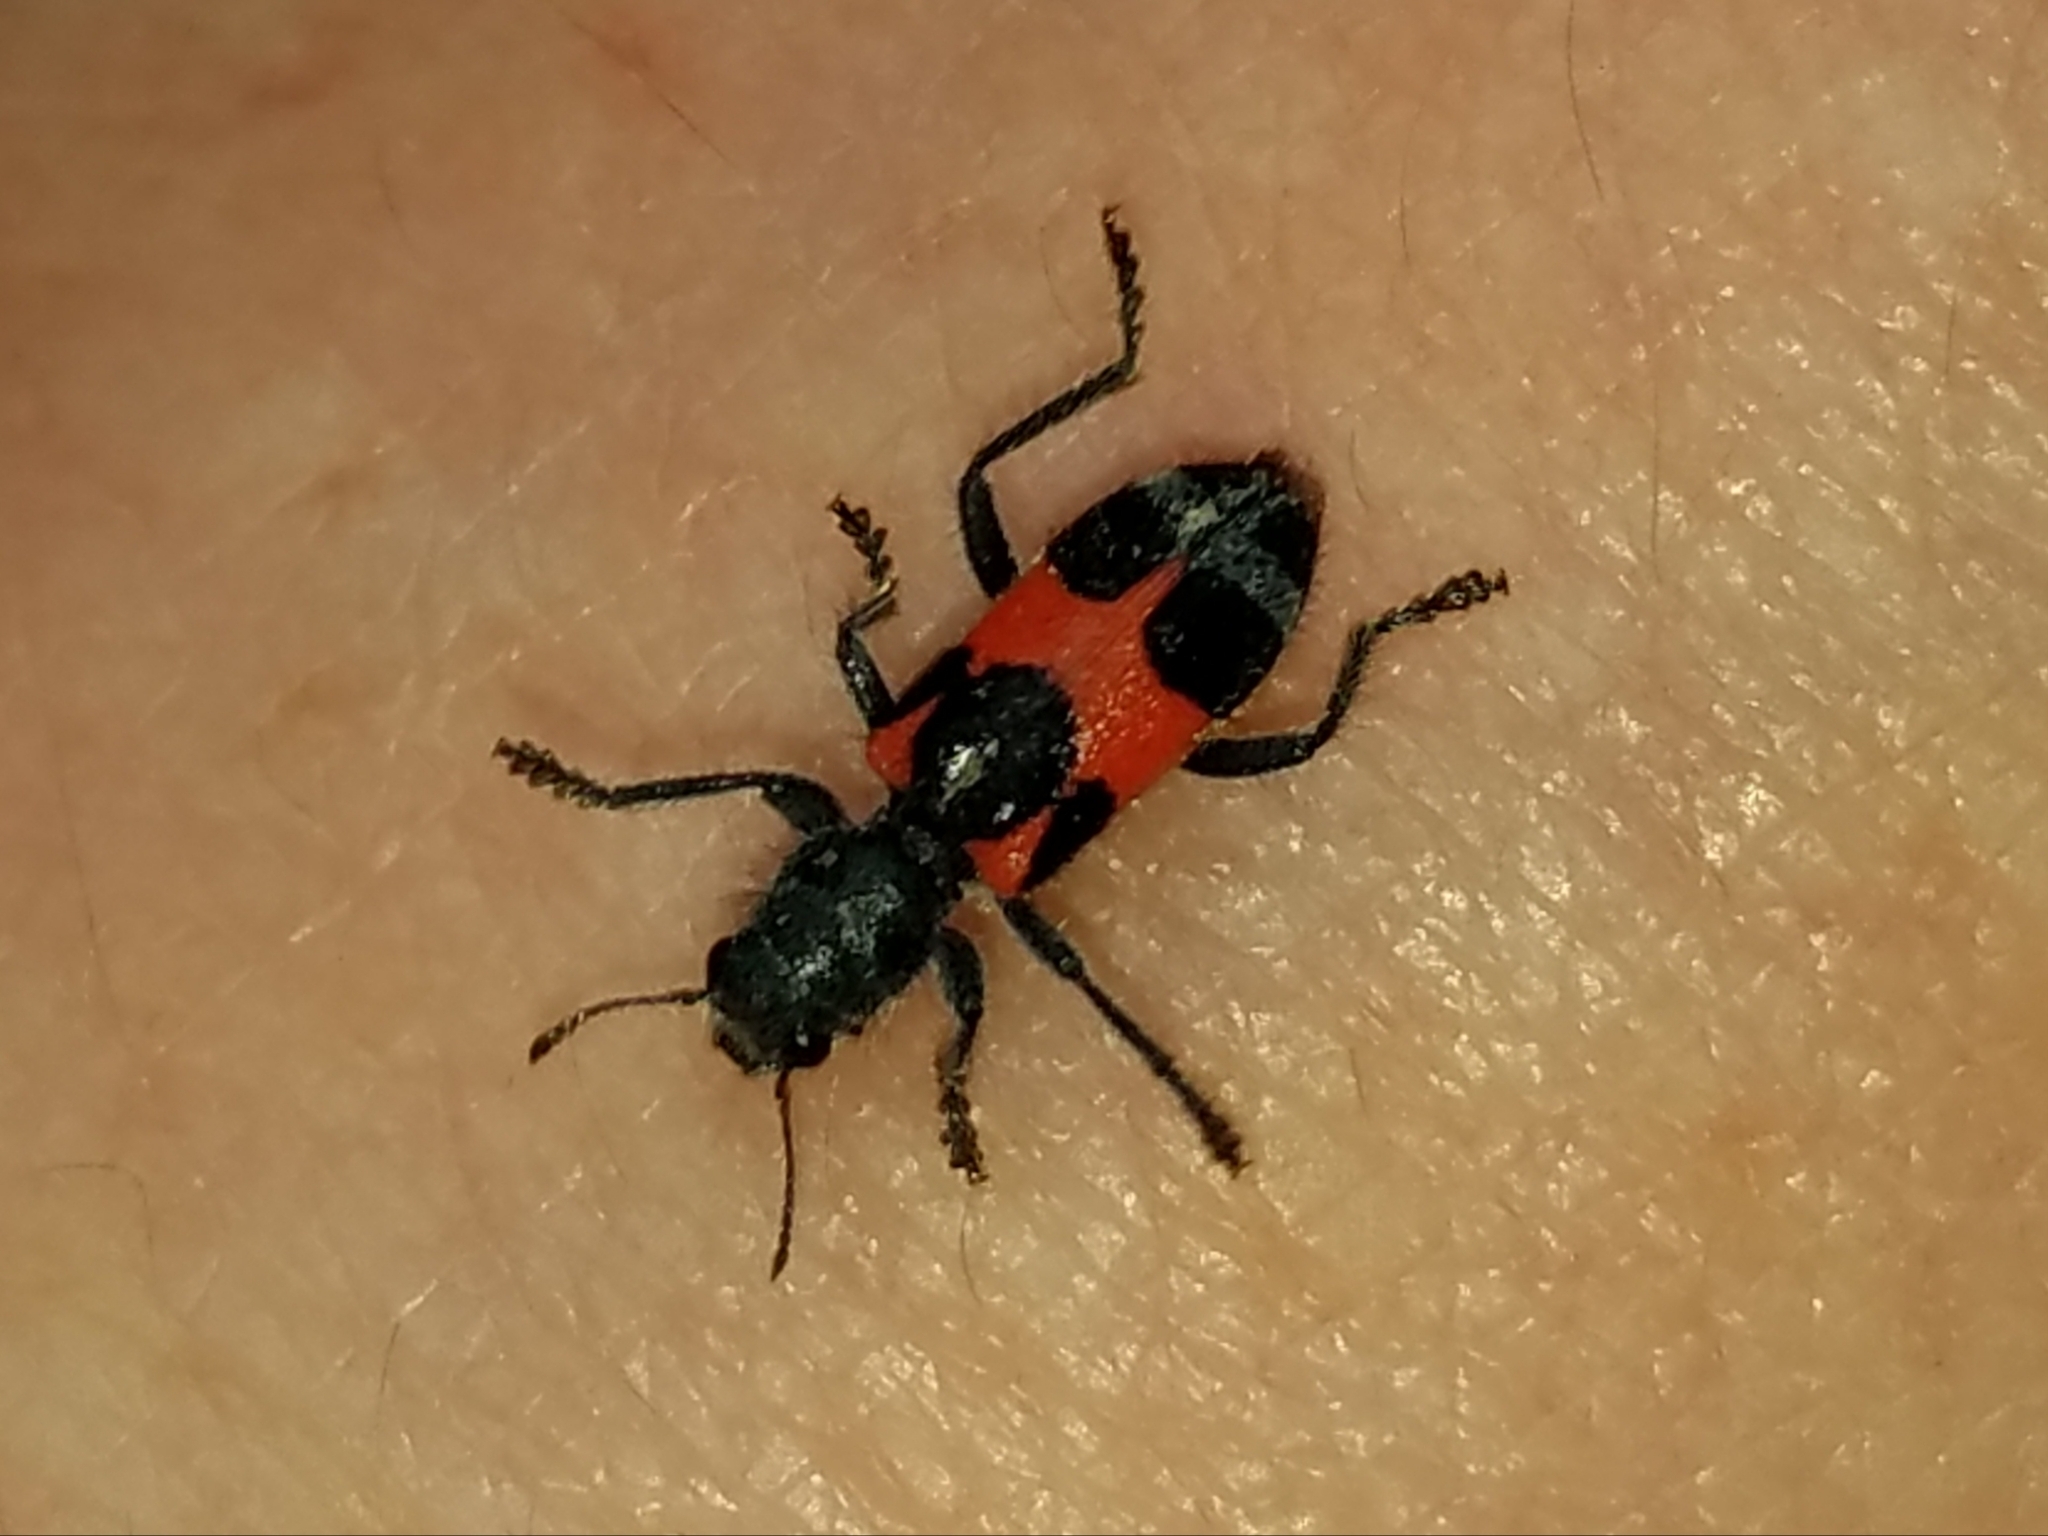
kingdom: Animalia
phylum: Arthropoda
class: Insecta
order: Coleoptera
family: Cleridae
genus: Enoclerus
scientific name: Enoclerus eximius
